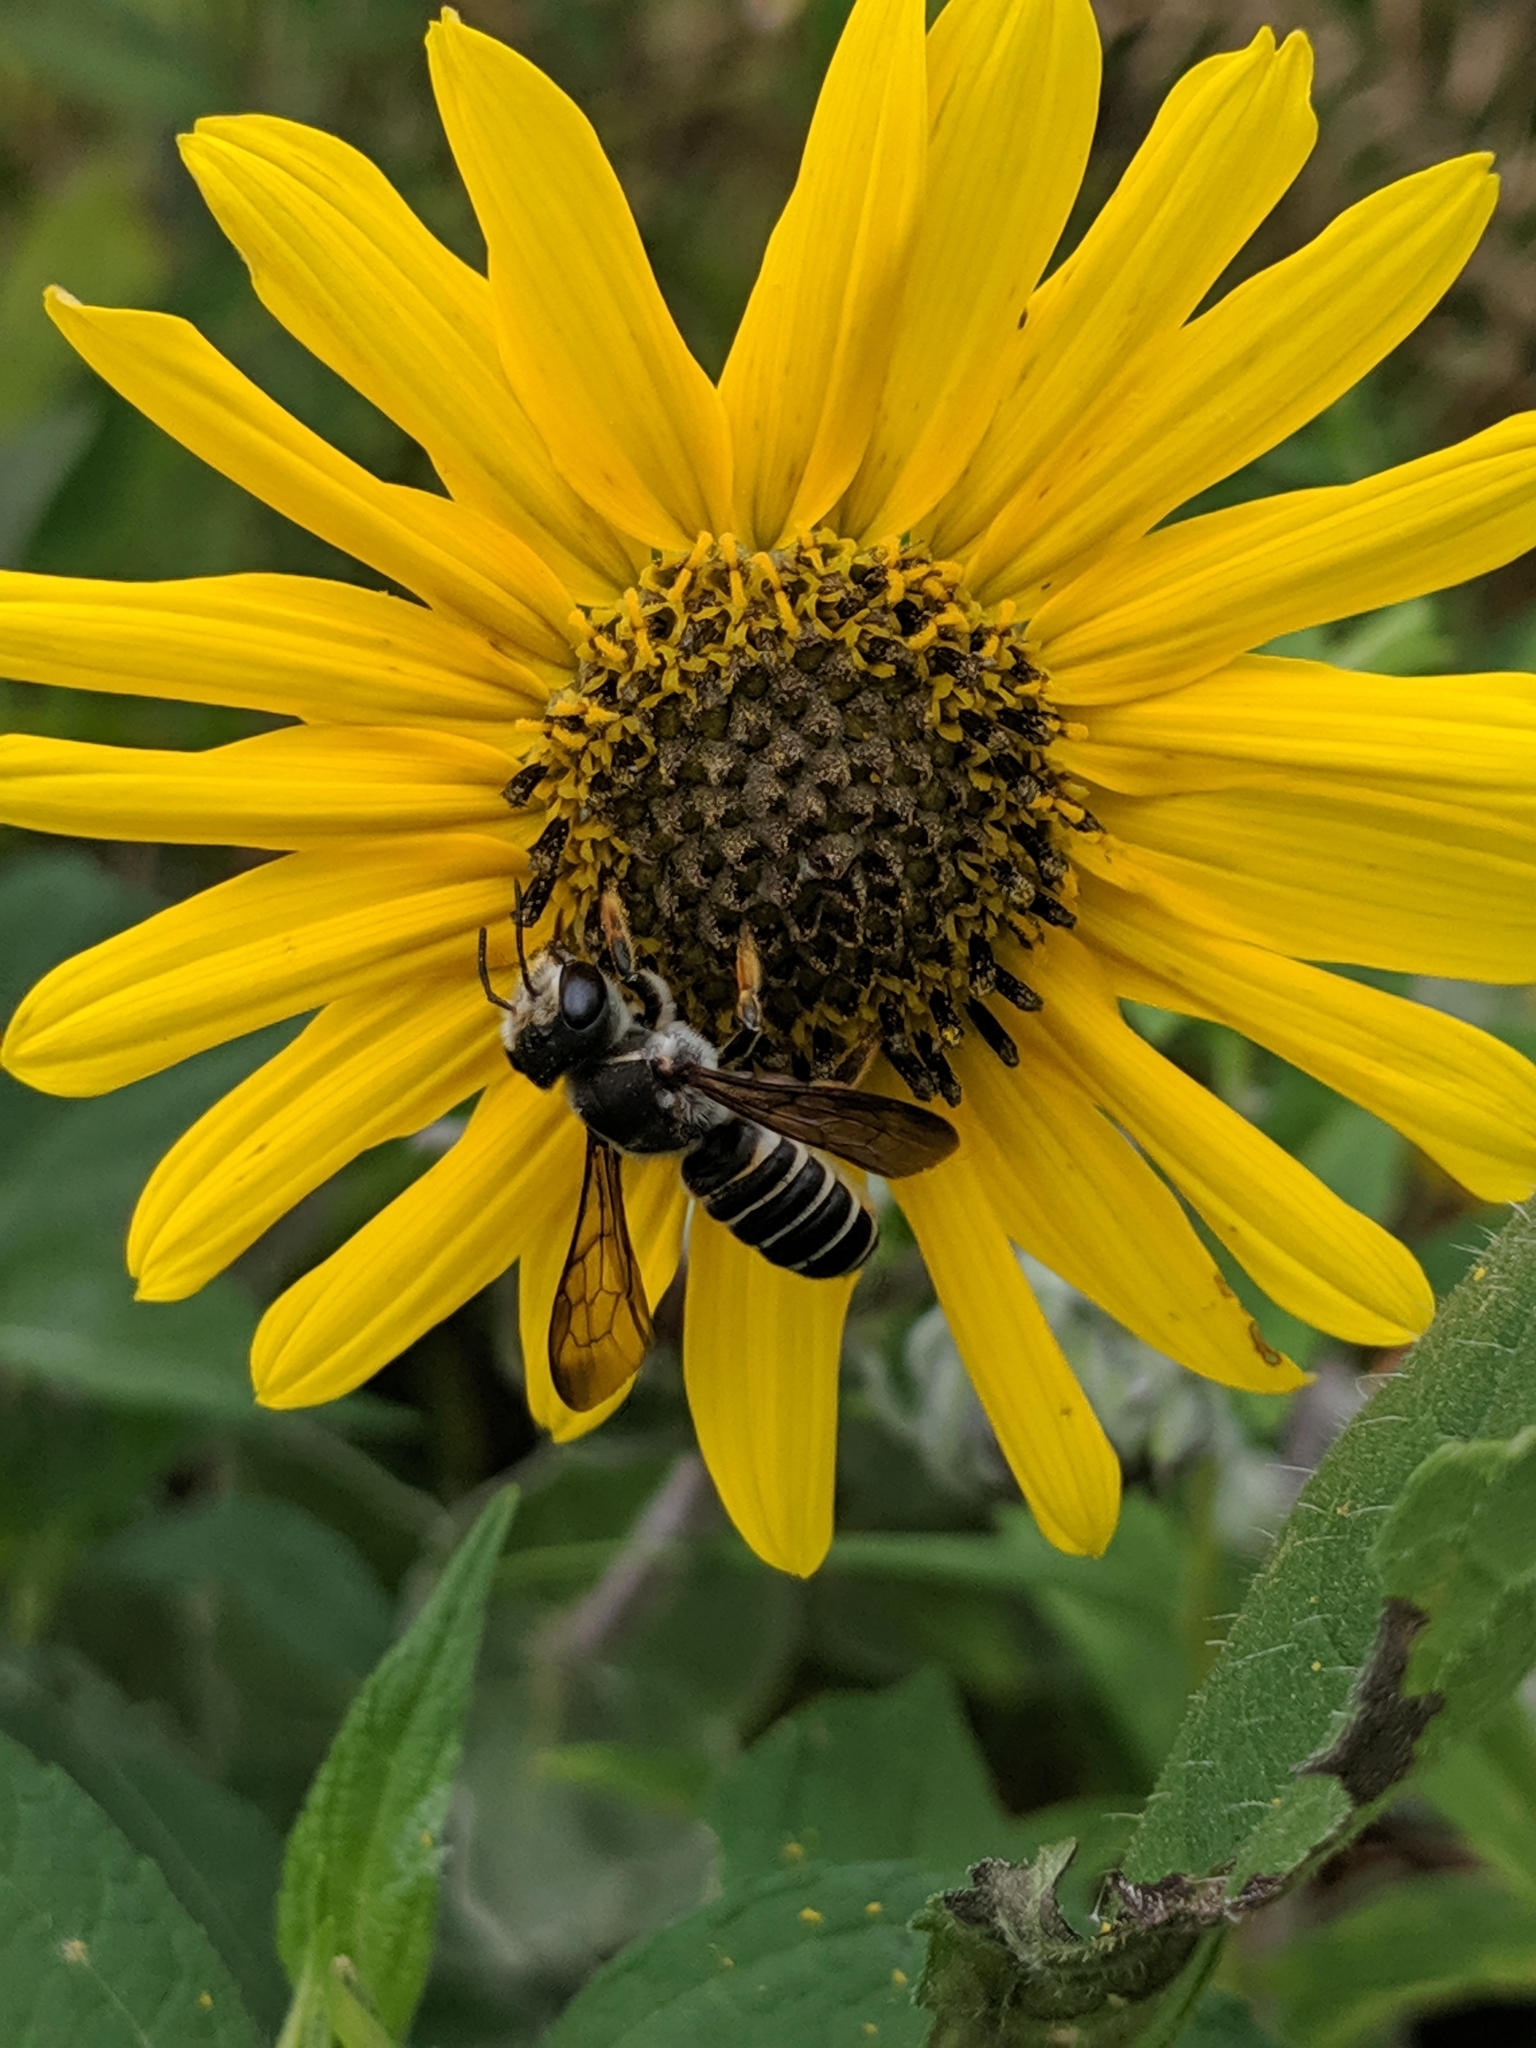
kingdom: Animalia
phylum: Arthropoda
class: Insecta
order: Hymenoptera
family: Megachilidae
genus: Megachile
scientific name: Megachile inimica
